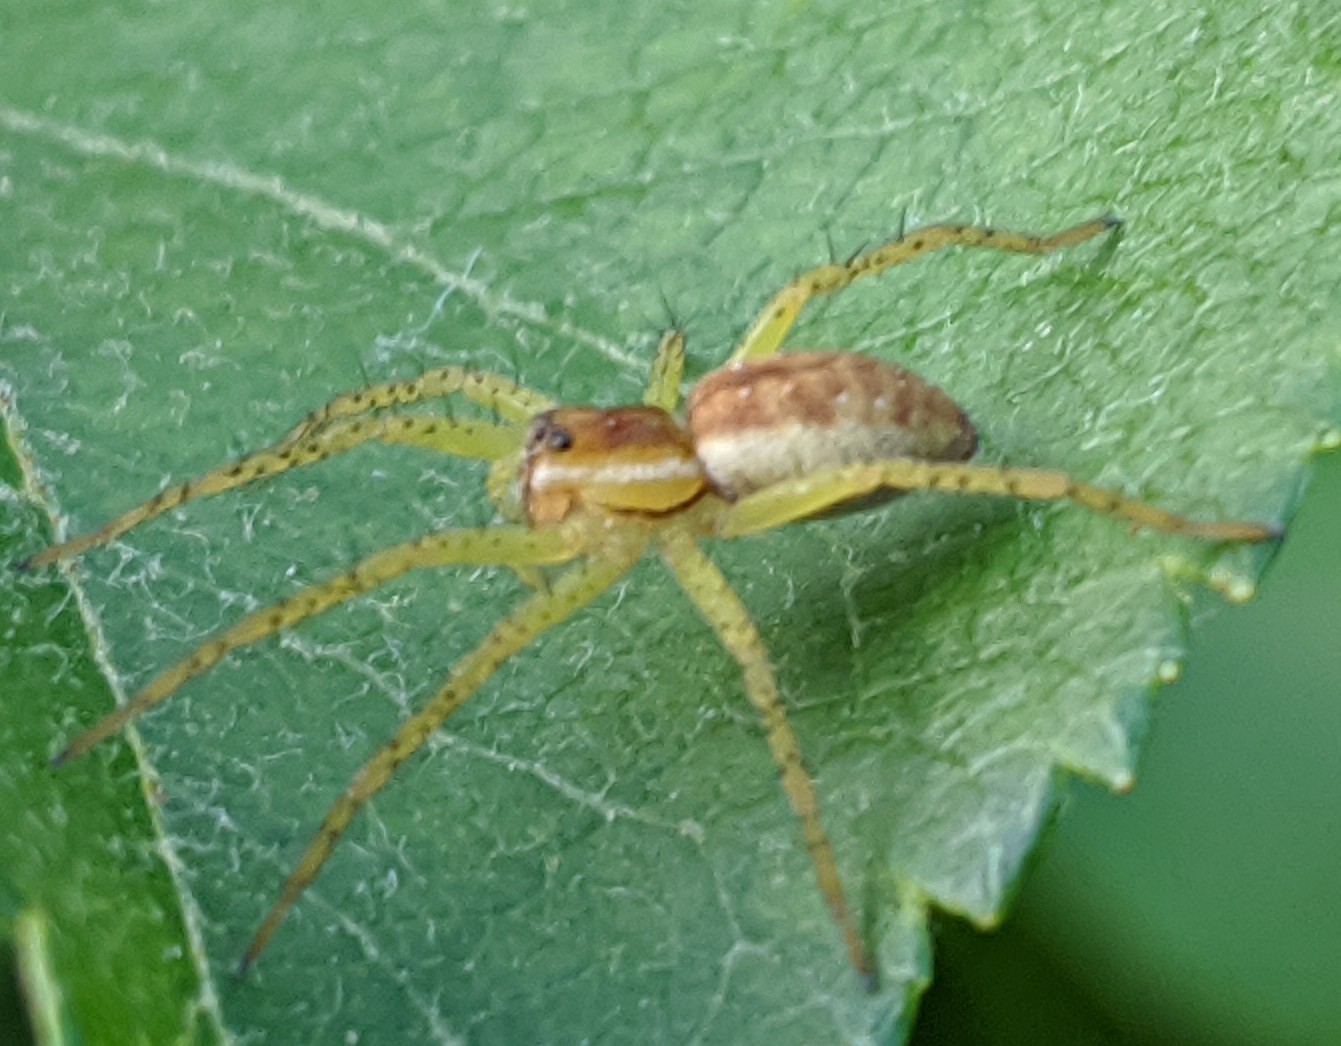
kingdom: Animalia
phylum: Arthropoda
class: Arachnida
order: Araneae
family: Pisauridae
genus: Dolomedes
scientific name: Dolomedes
